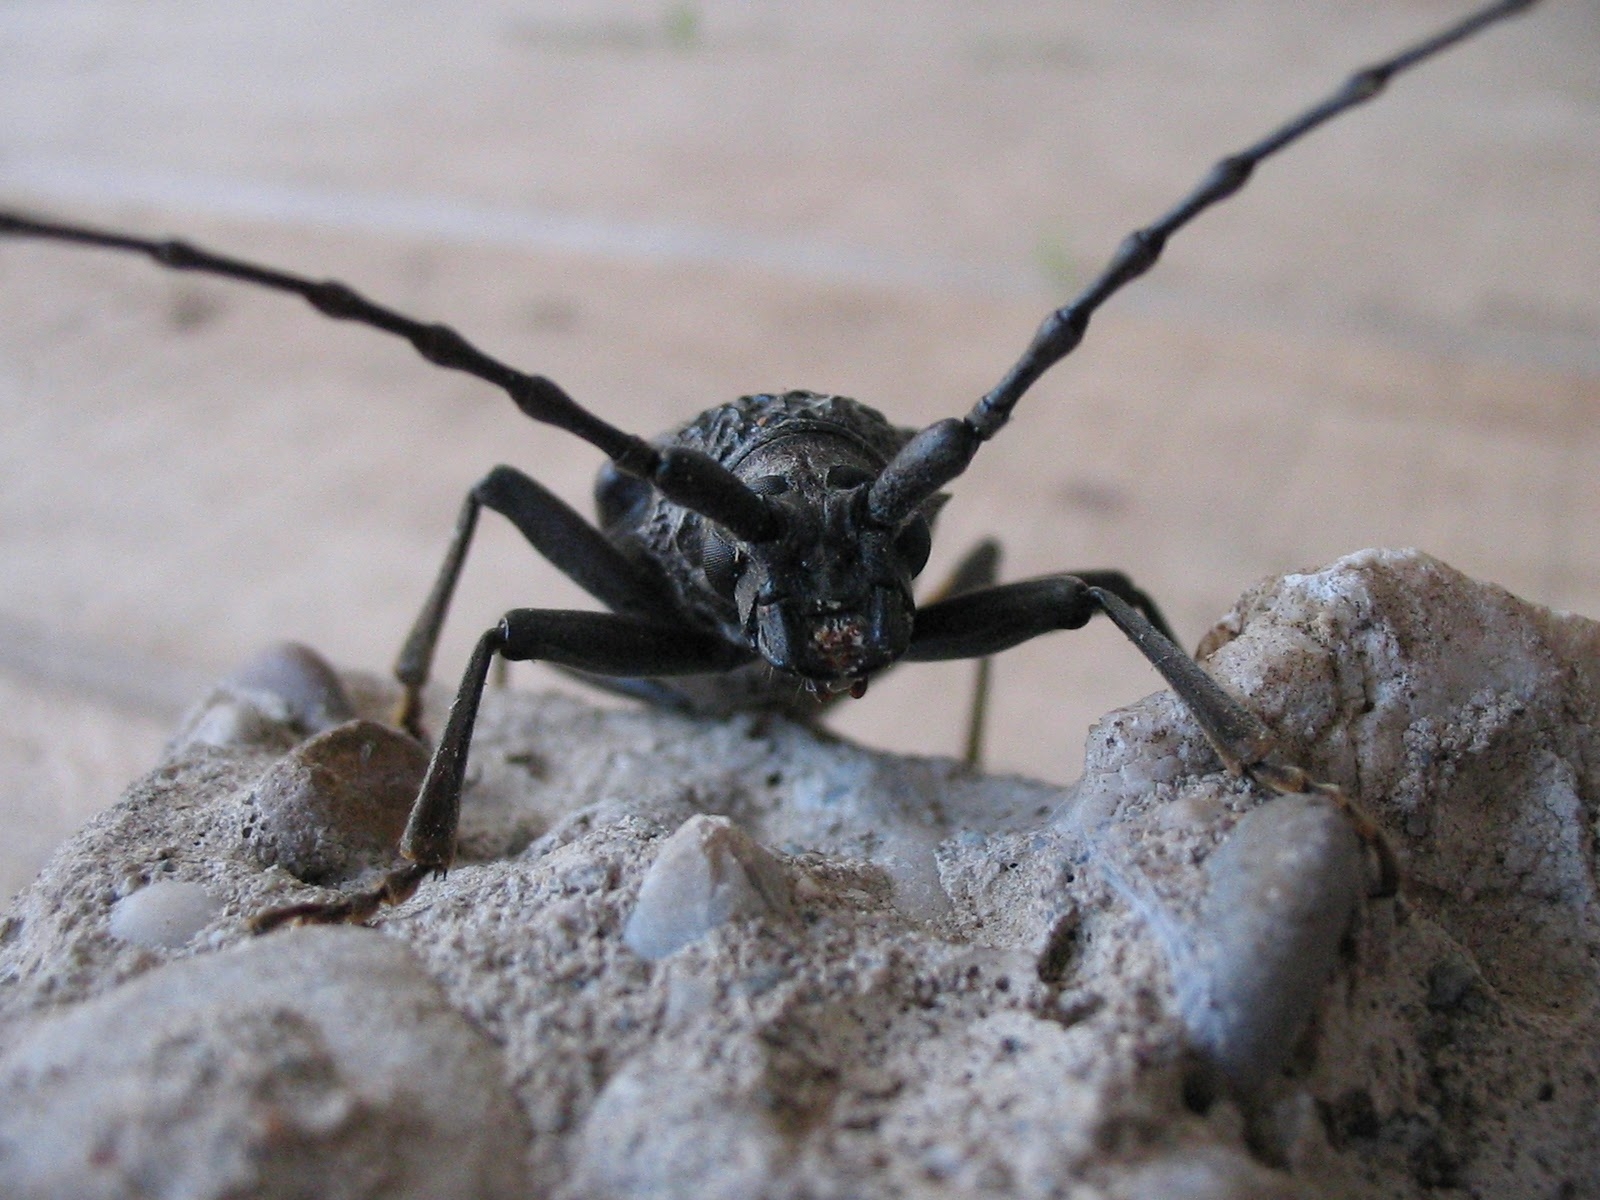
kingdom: Animalia
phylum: Arthropoda
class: Insecta
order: Coleoptera
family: Cerambycidae
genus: Cerambyx
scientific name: Cerambyx welensii
